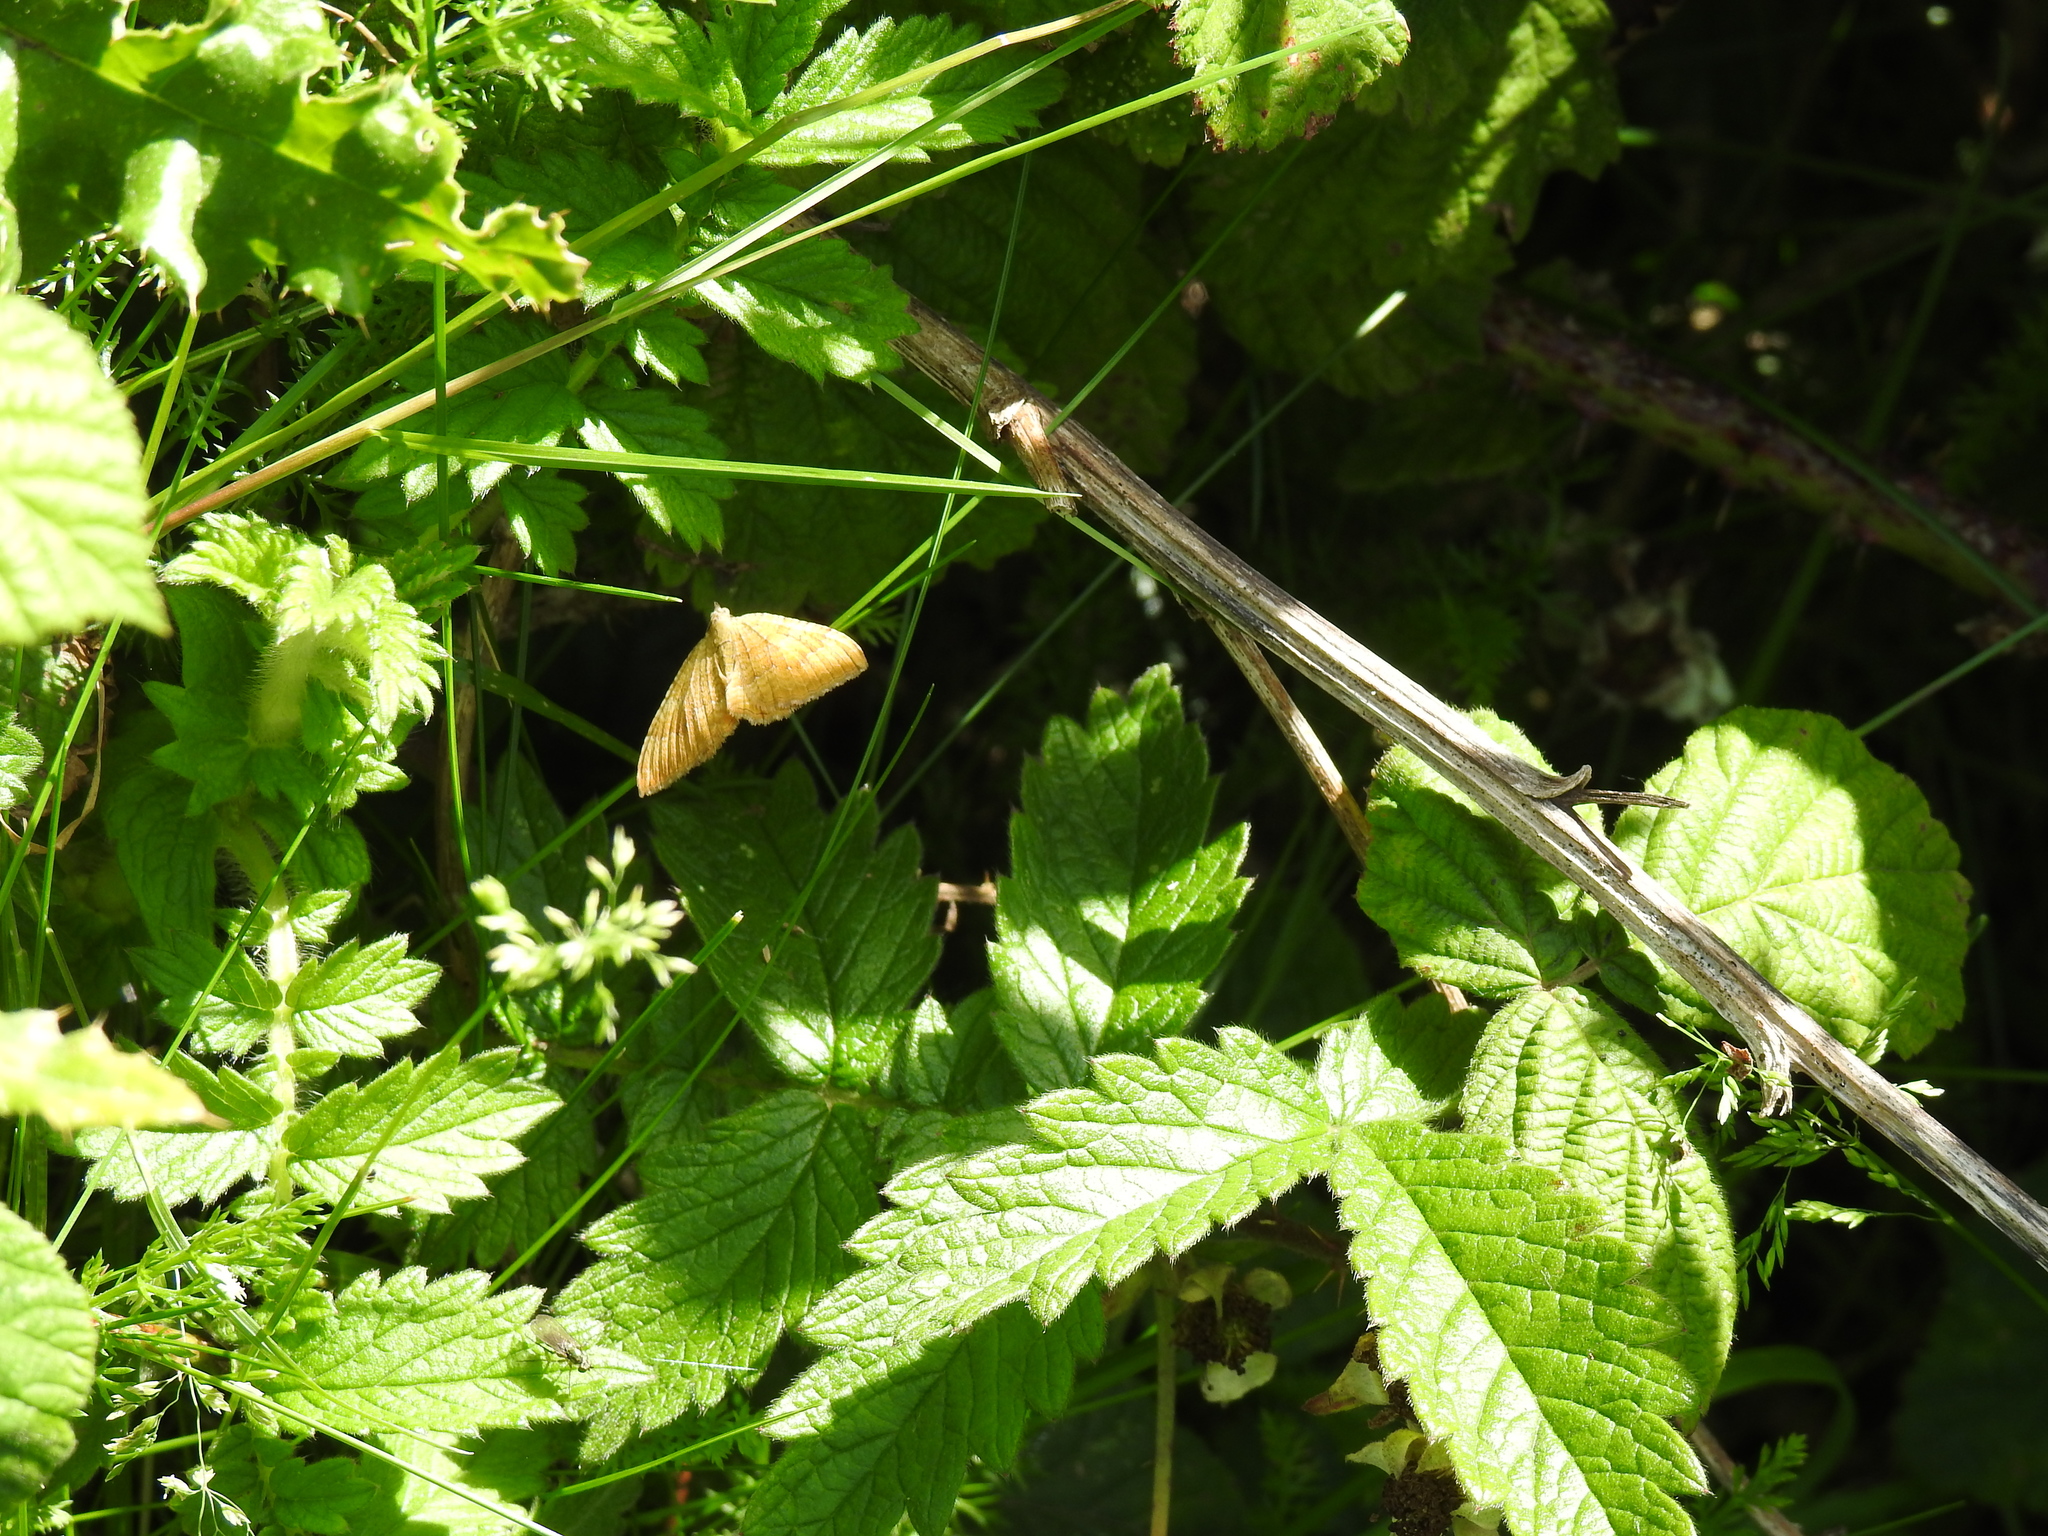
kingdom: Animalia
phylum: Arthropoda
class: Insecta
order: Lepidoptera
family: Geometridae
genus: Camptogramma
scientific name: Camptogramma bilineata
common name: Yellow shell
